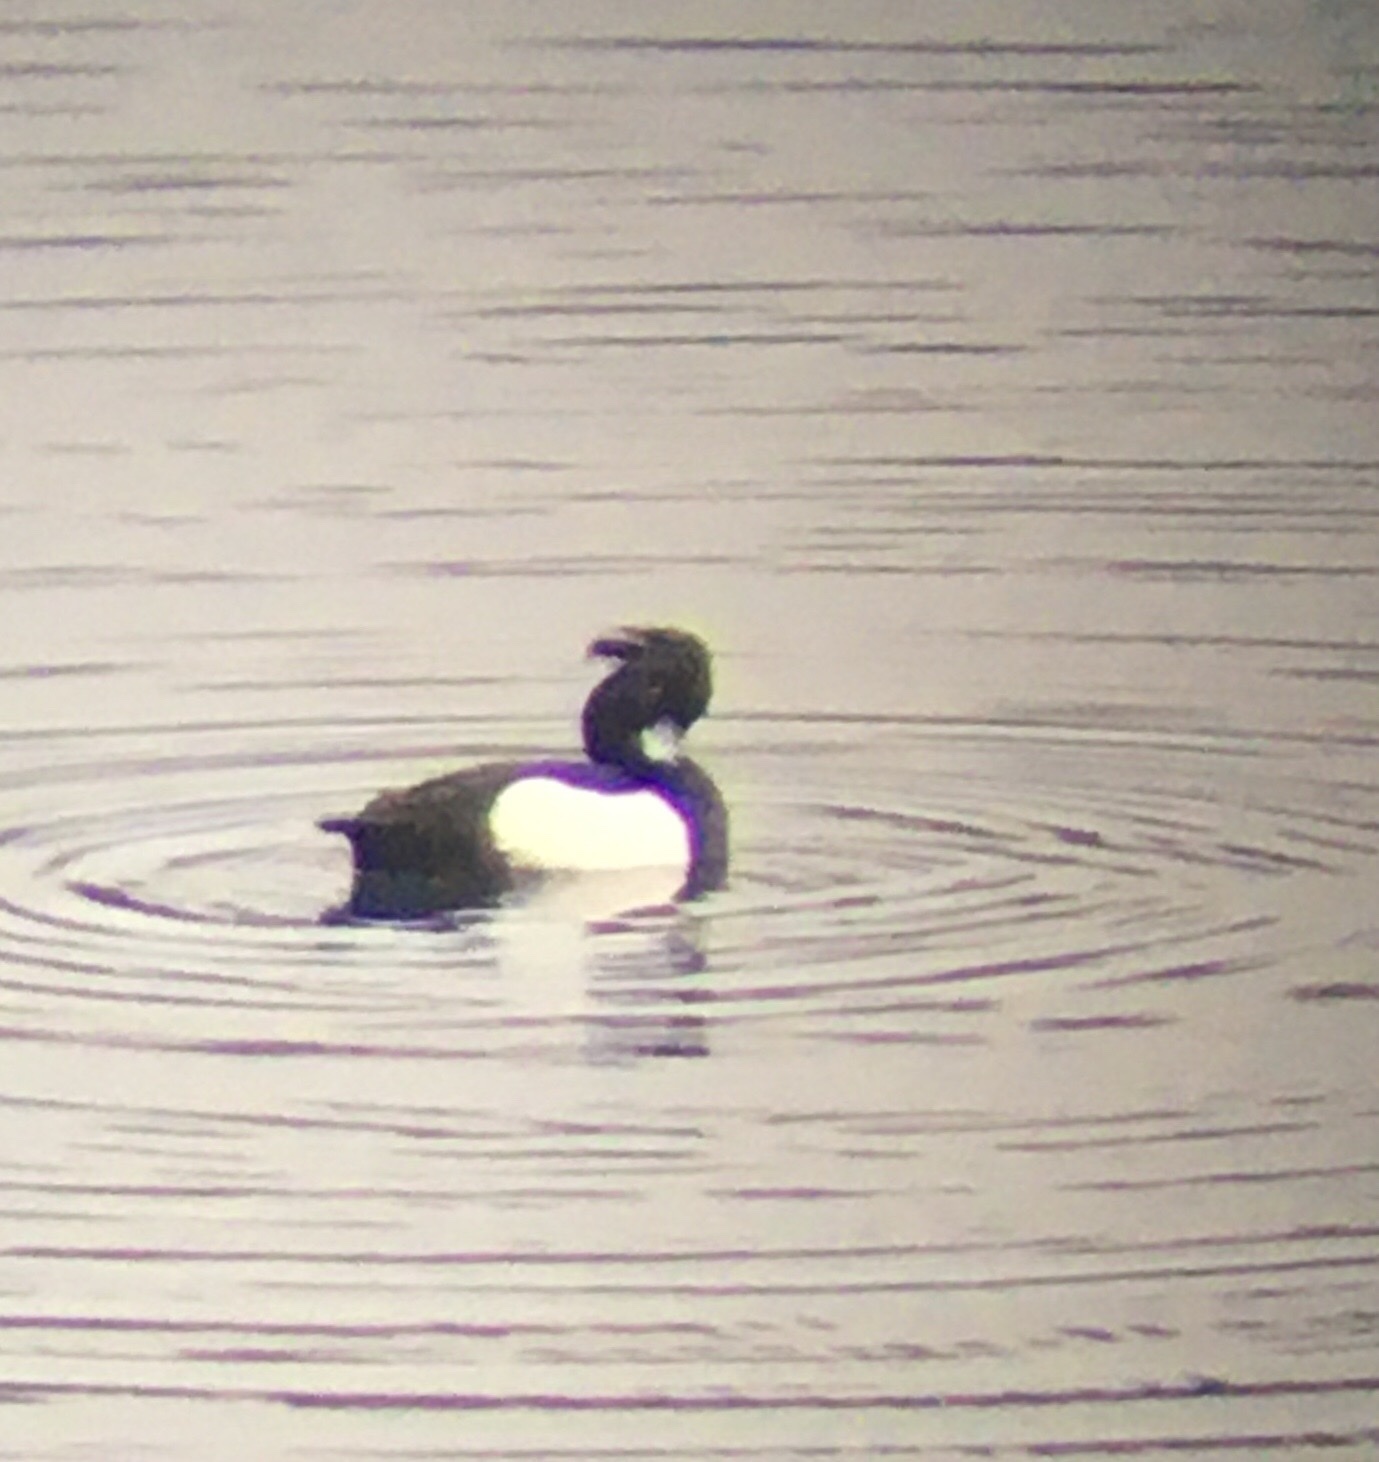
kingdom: Animalia
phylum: Chordata
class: Aves
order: Anseriformes
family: Anatidae
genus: Aythya
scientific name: Aythya fuligula
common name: Tufted duck
